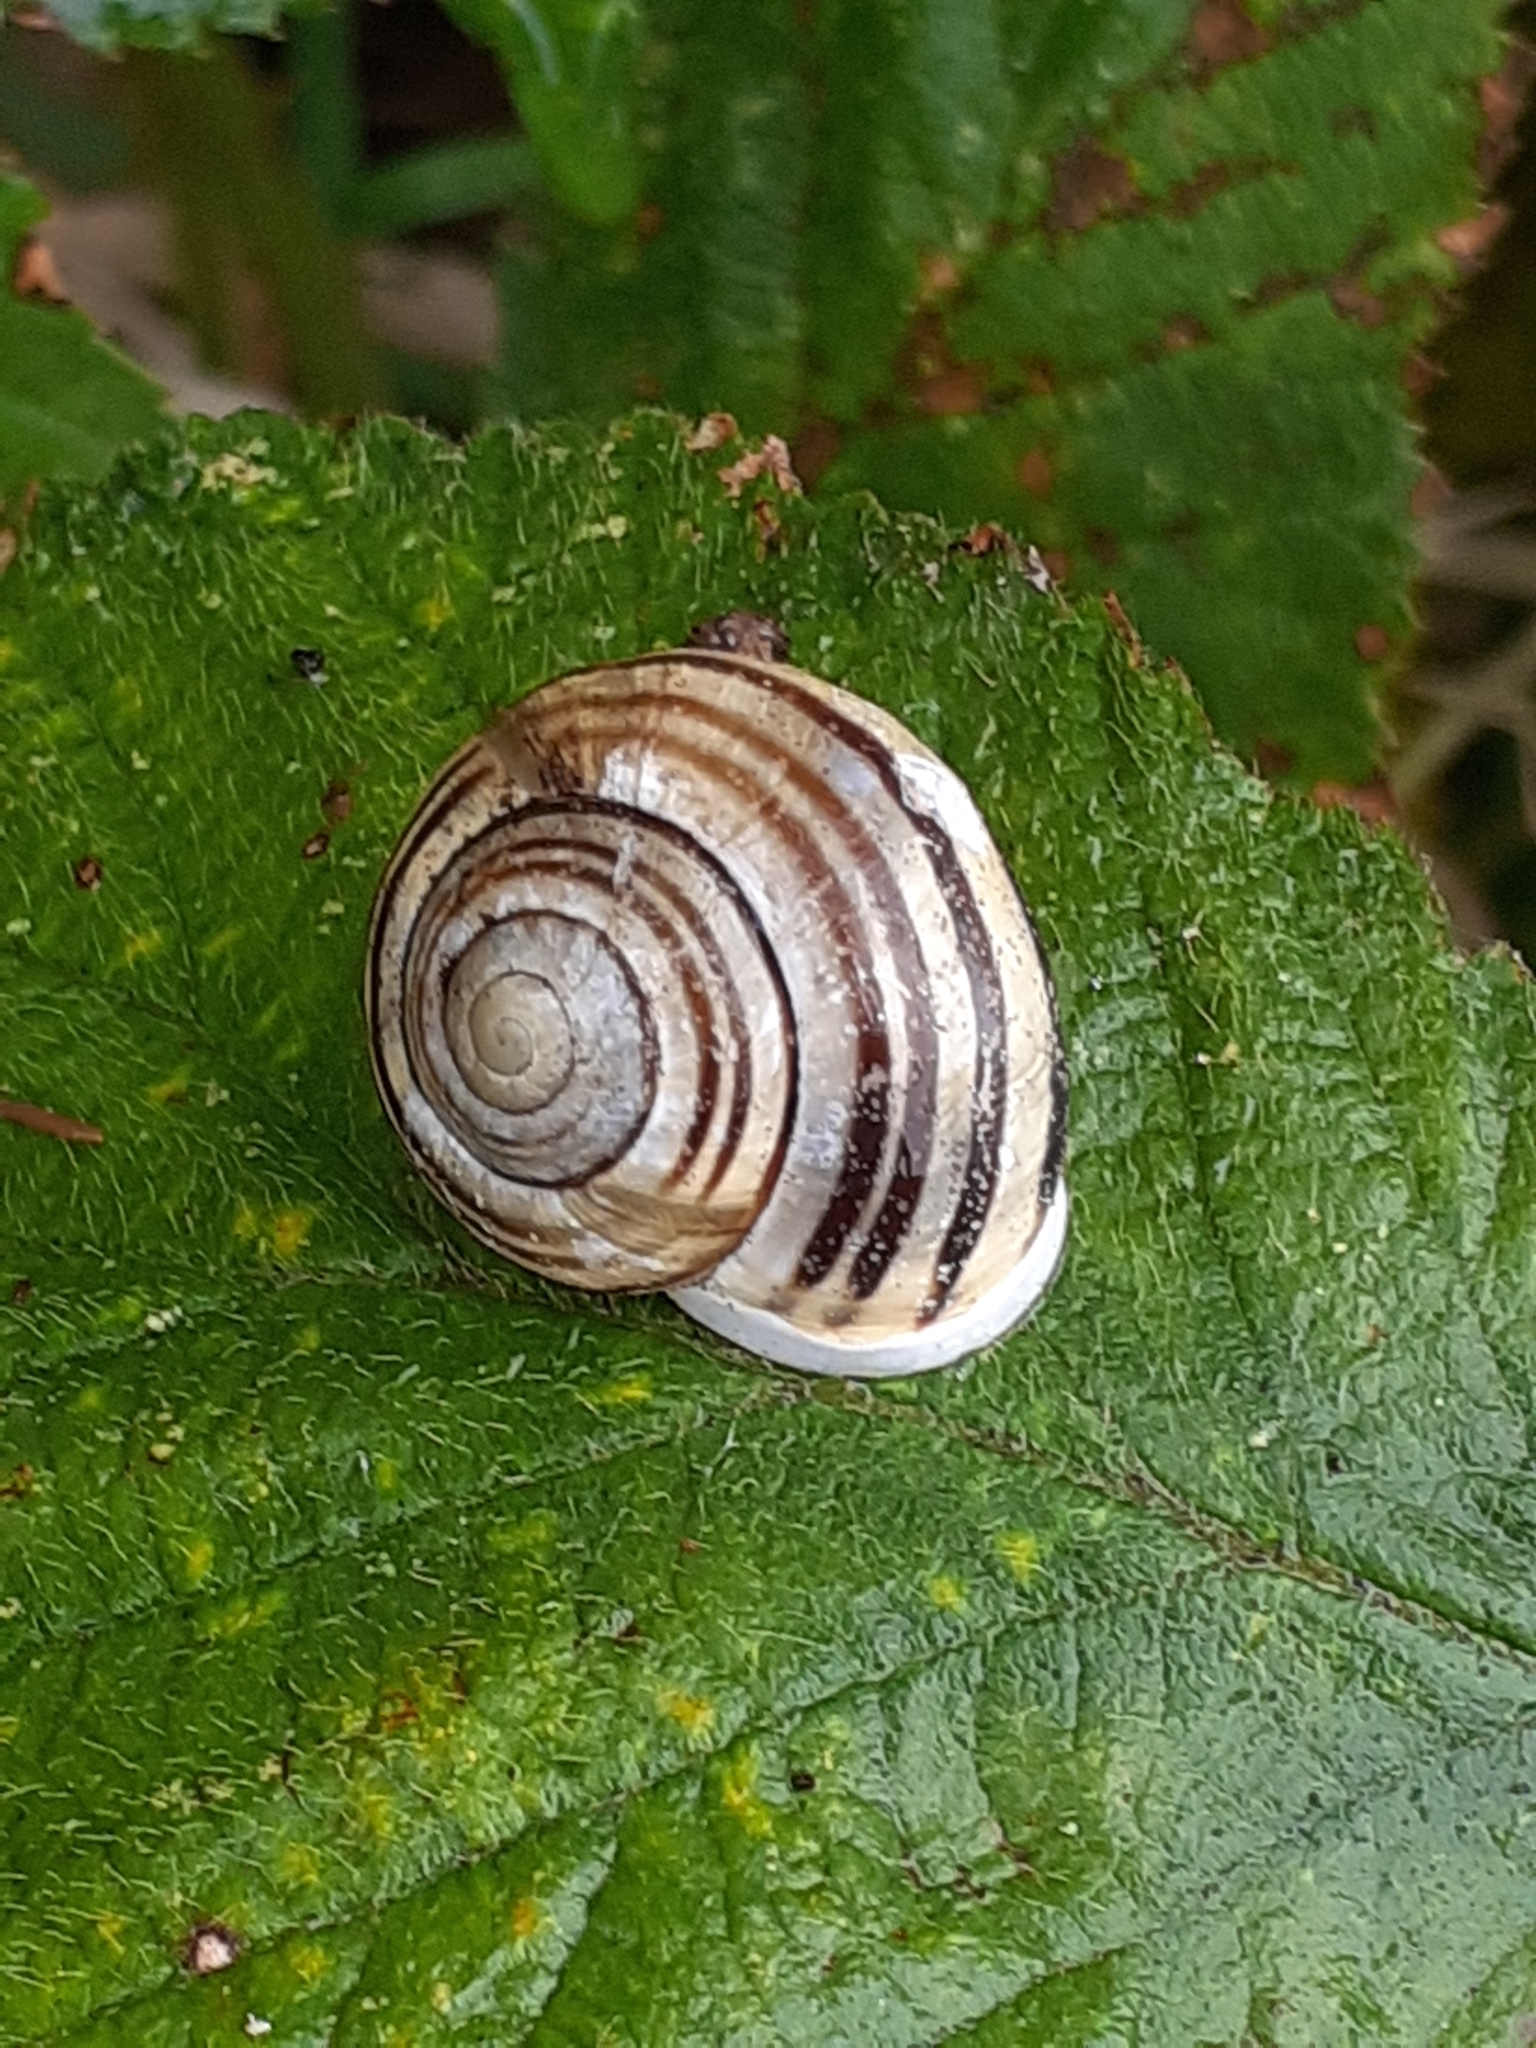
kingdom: Animalia
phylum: Mollusca
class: Gastropoda
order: Stylommatophora
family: Helicidae
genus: Cepaea
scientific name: Cepaea hortensis
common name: White-lip gardensnail
